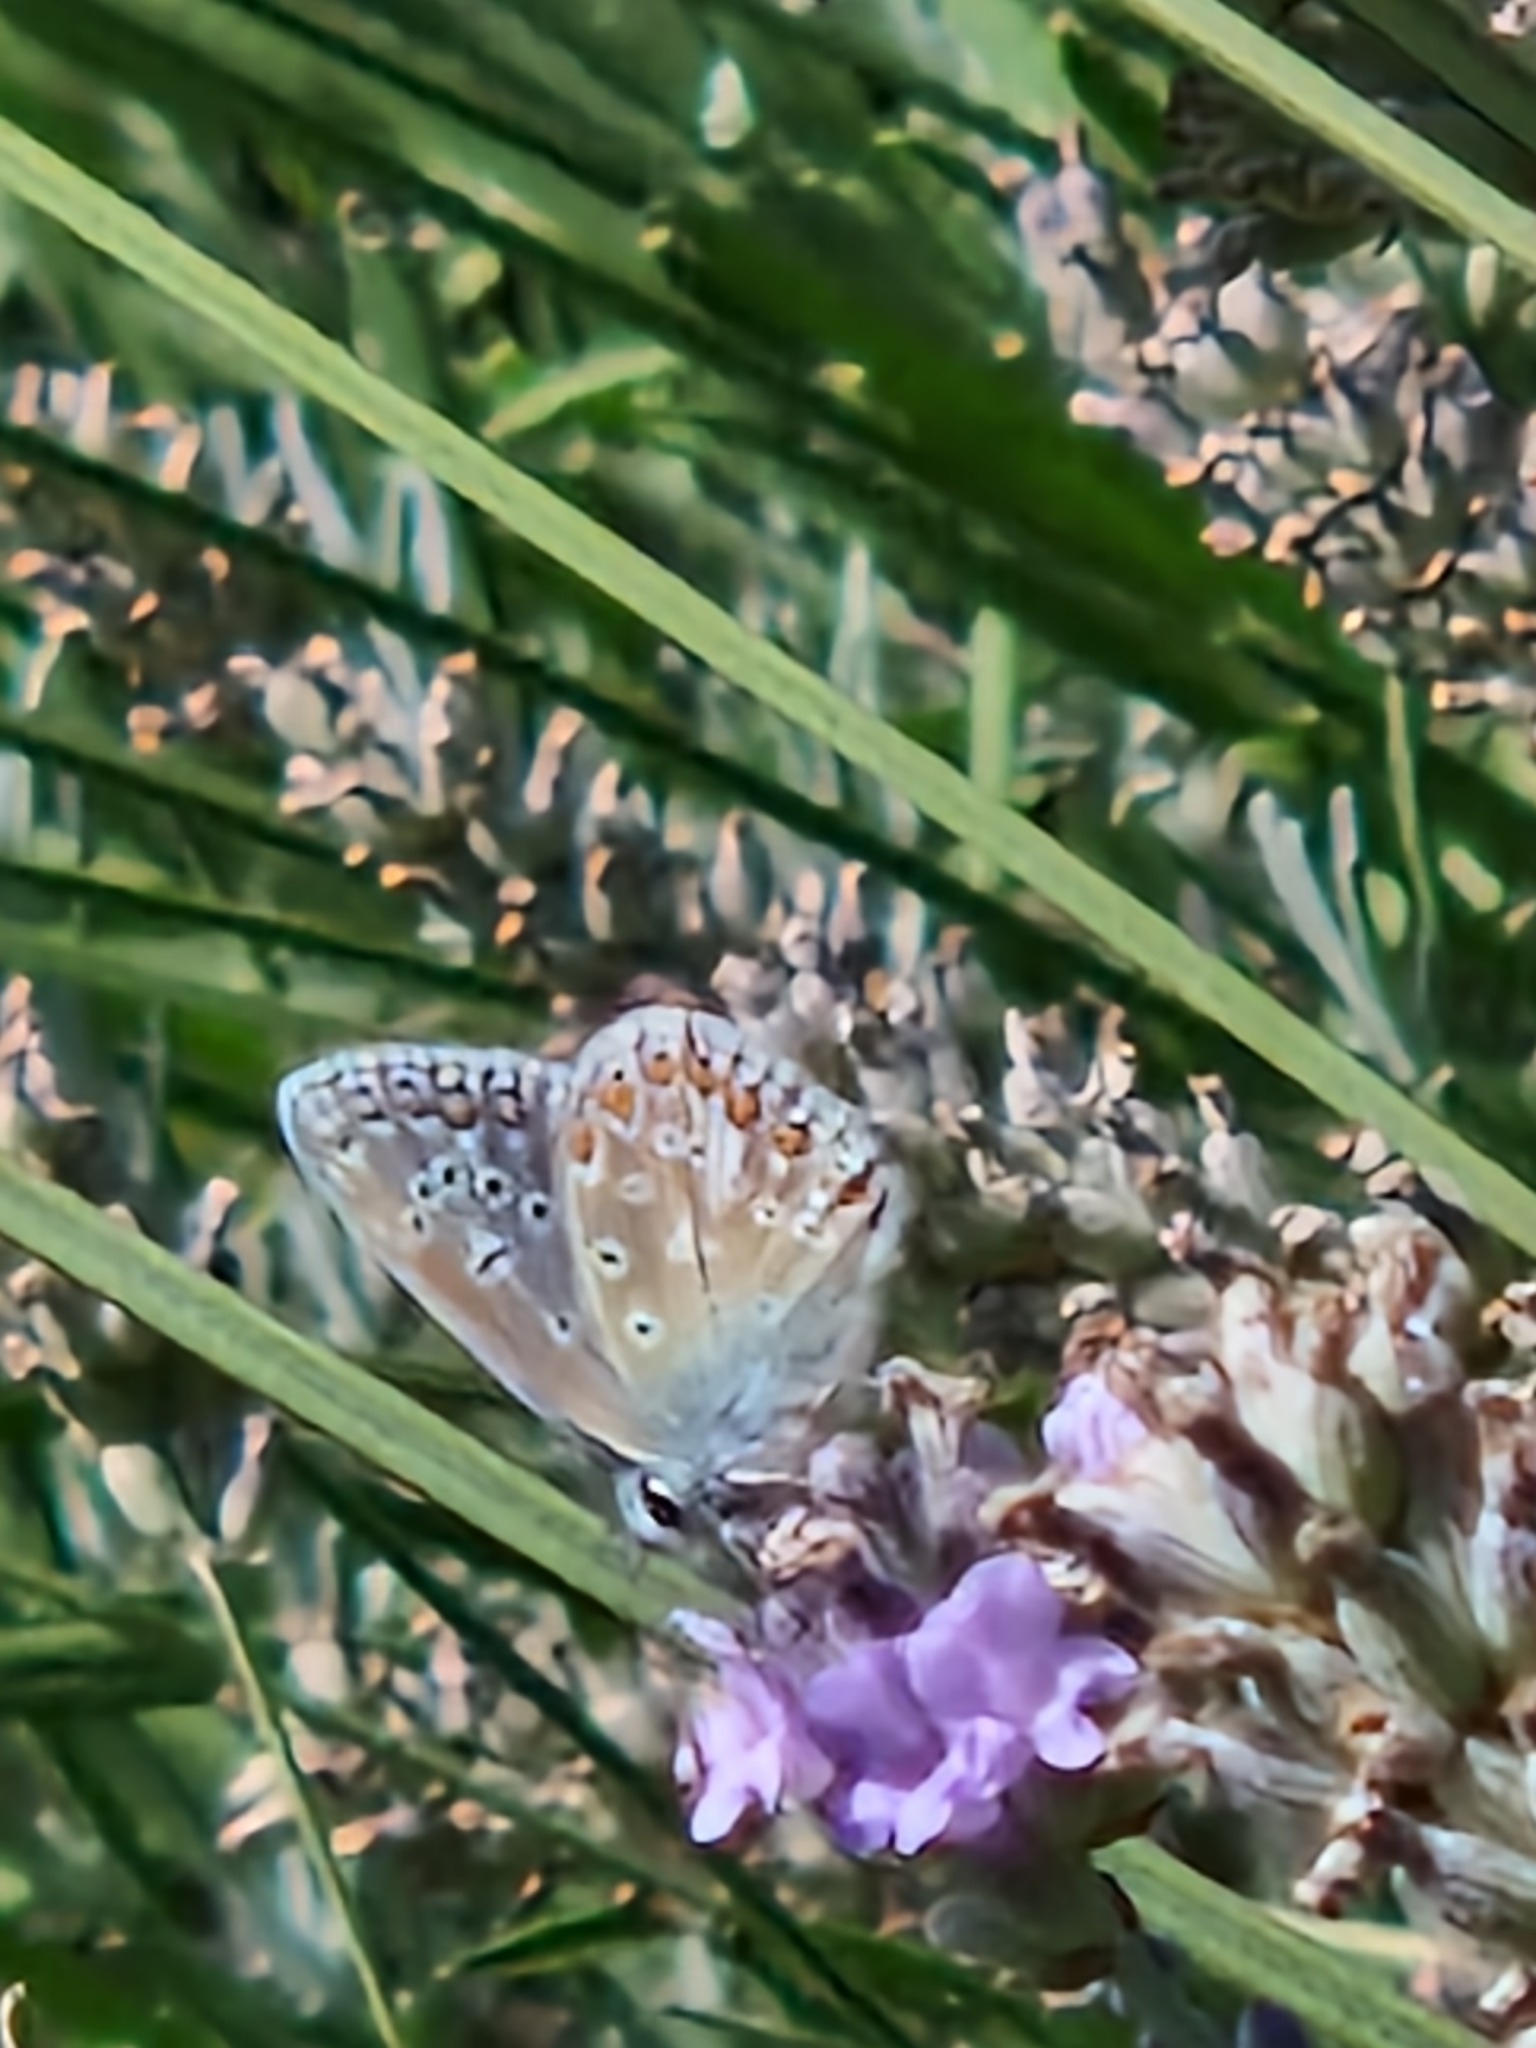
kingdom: Animalia
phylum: Arthropoda
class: Insecta
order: Lepidoptera
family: Lycaenidae
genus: Polyommatus
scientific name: Polyommatus icarus
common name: Common blue
